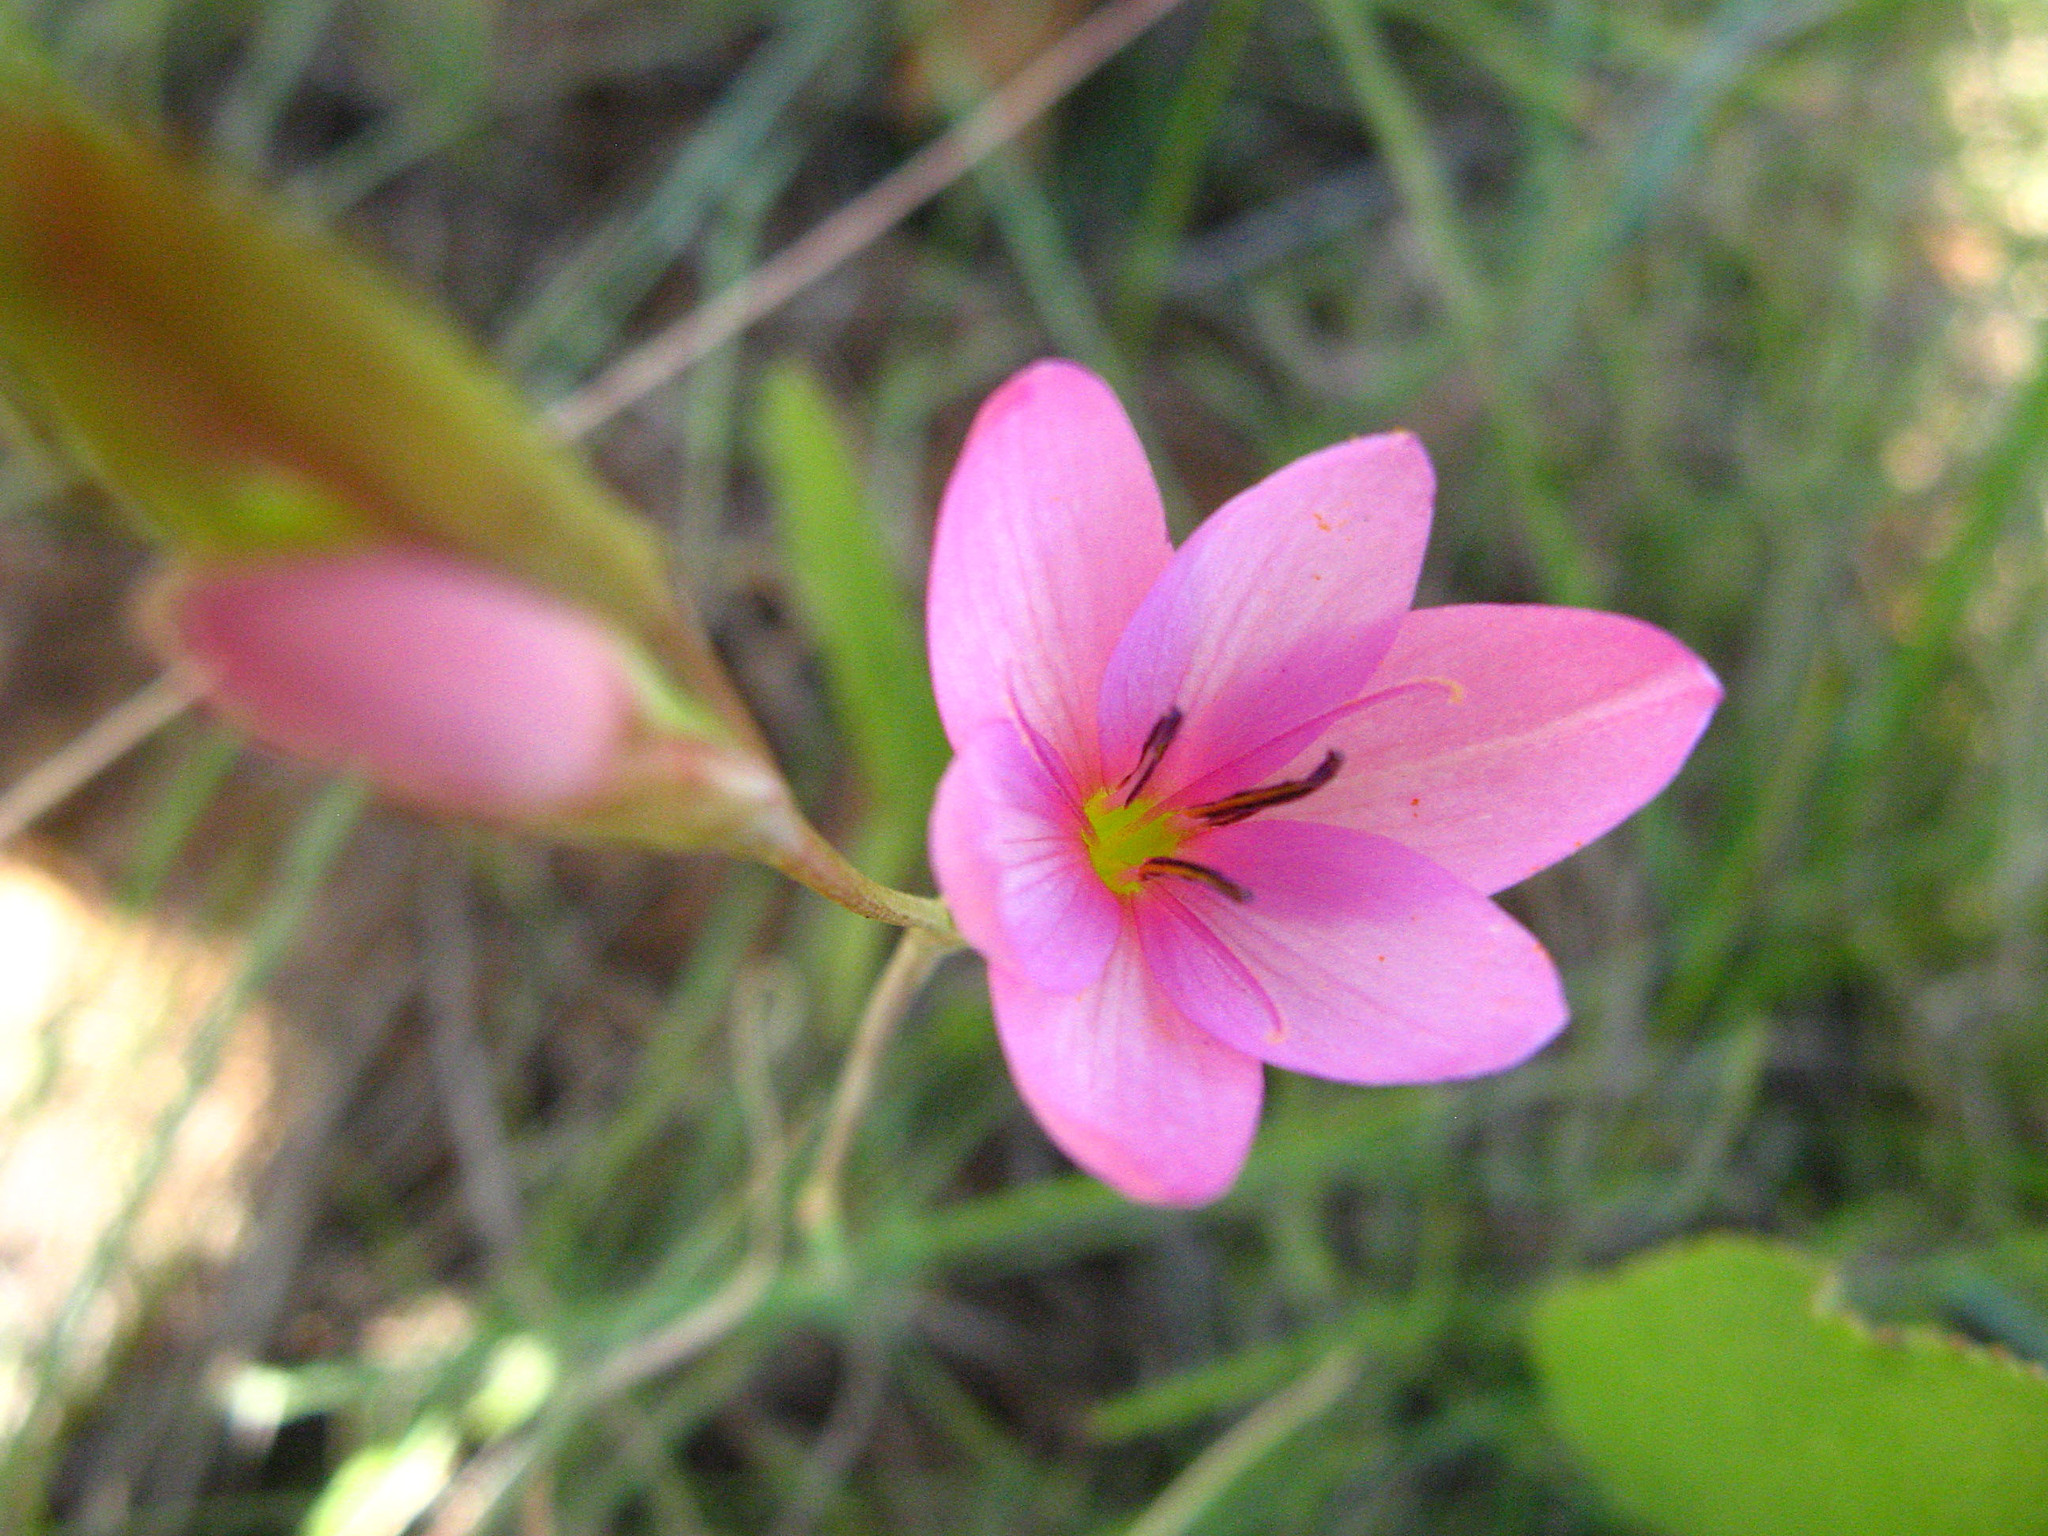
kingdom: Plantae
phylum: Tracheophyta
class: Liliopsida
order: Asparagales
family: Iridaceae
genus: Hesperantha
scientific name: Hesperantha baurii
